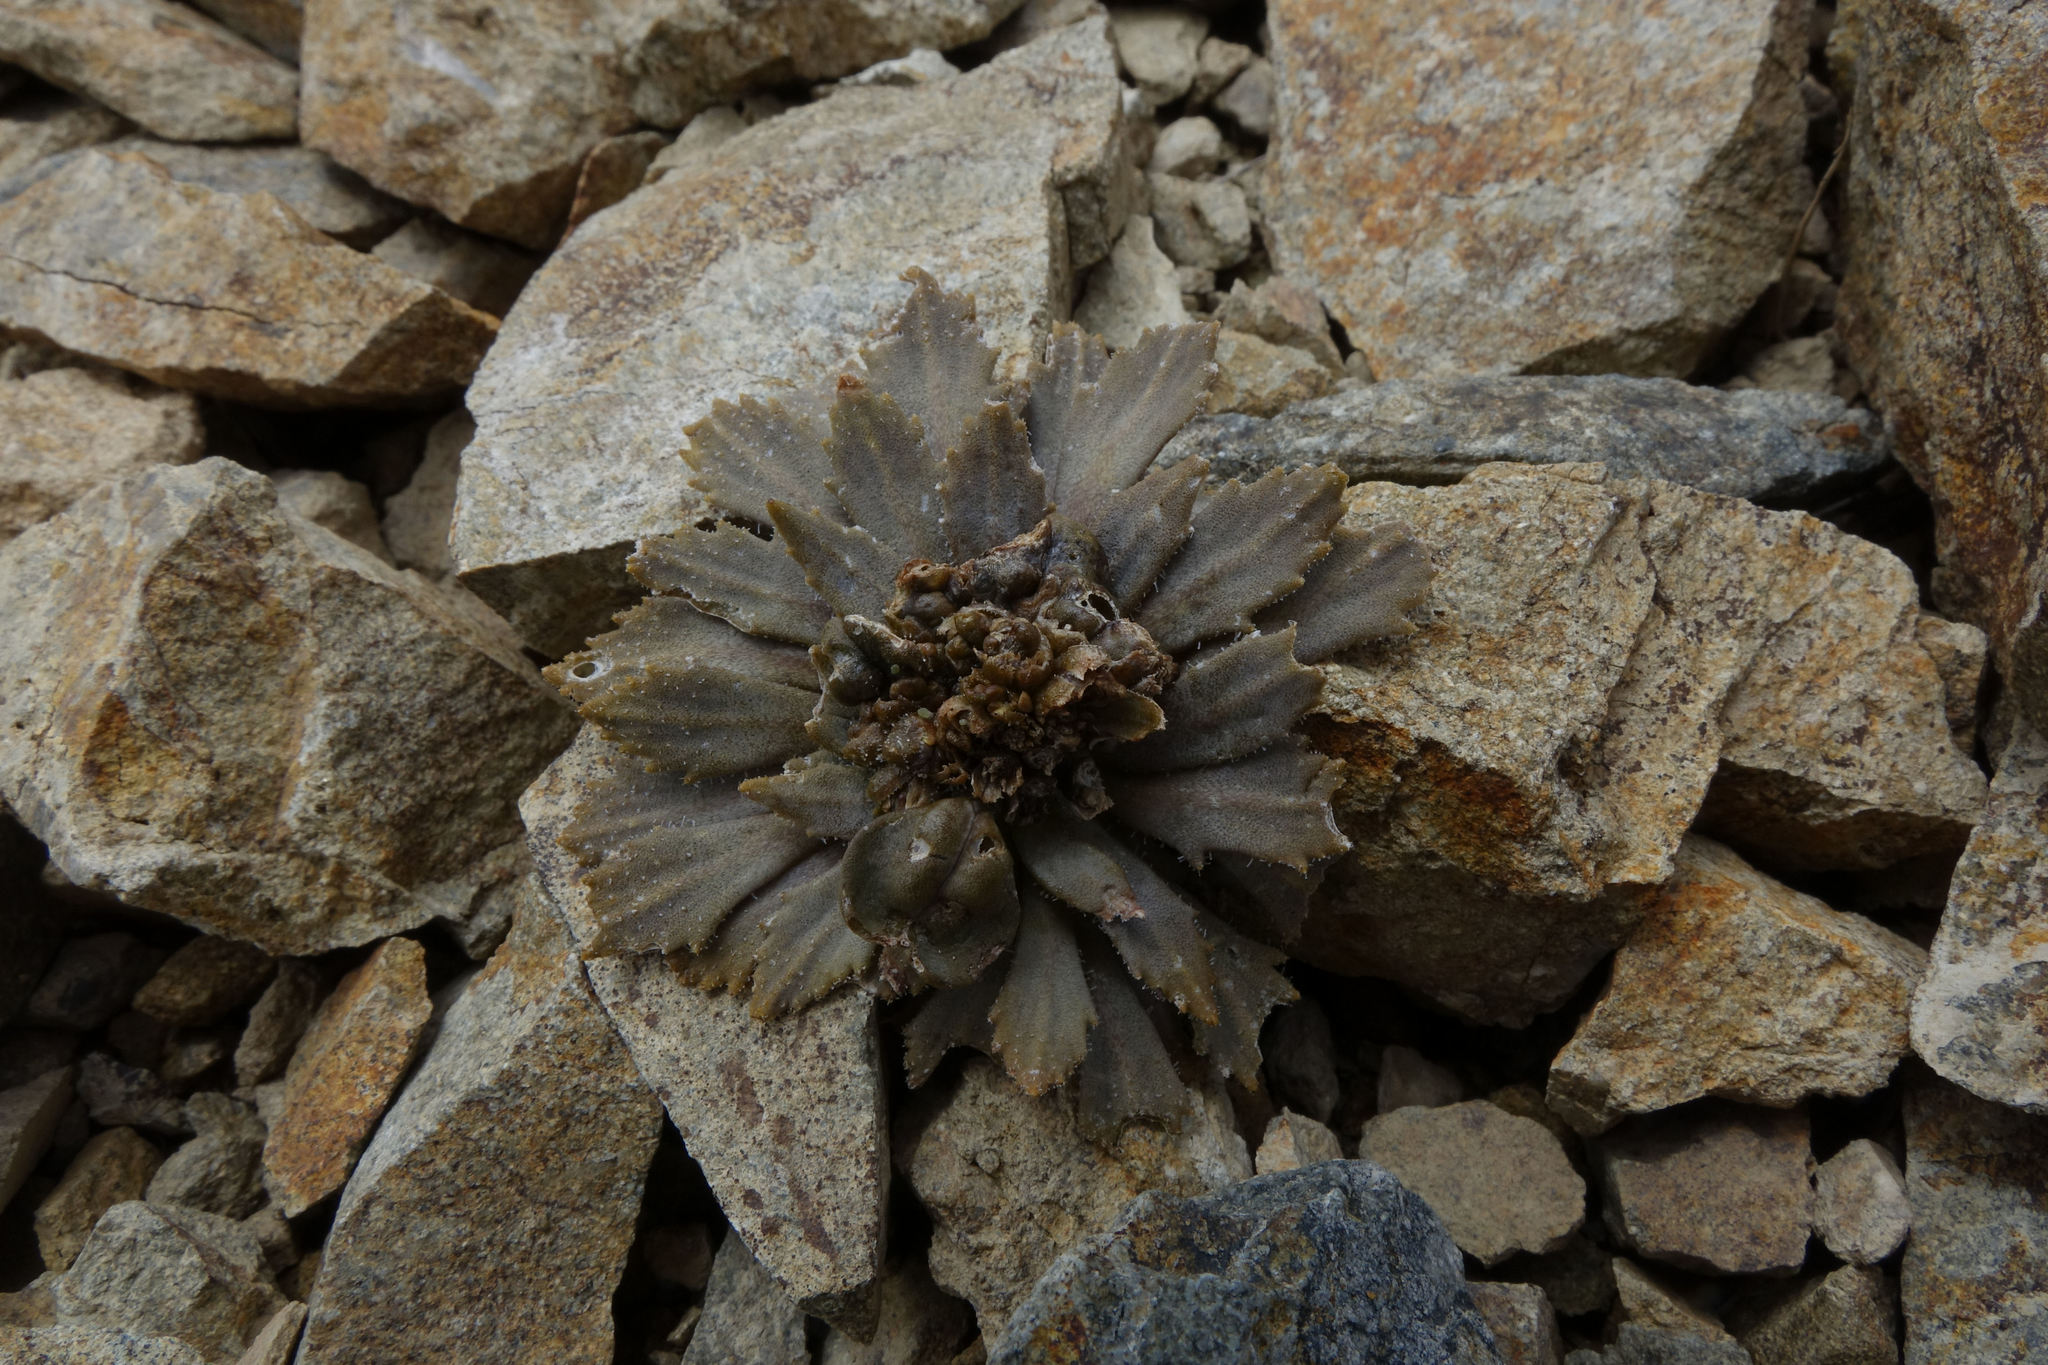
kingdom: Plantae
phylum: Tracheophyta
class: Magnoliopsida
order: Brassicales
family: Brassicaceae
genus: Notothlaspi
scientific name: Notothlaspi rosulatum
